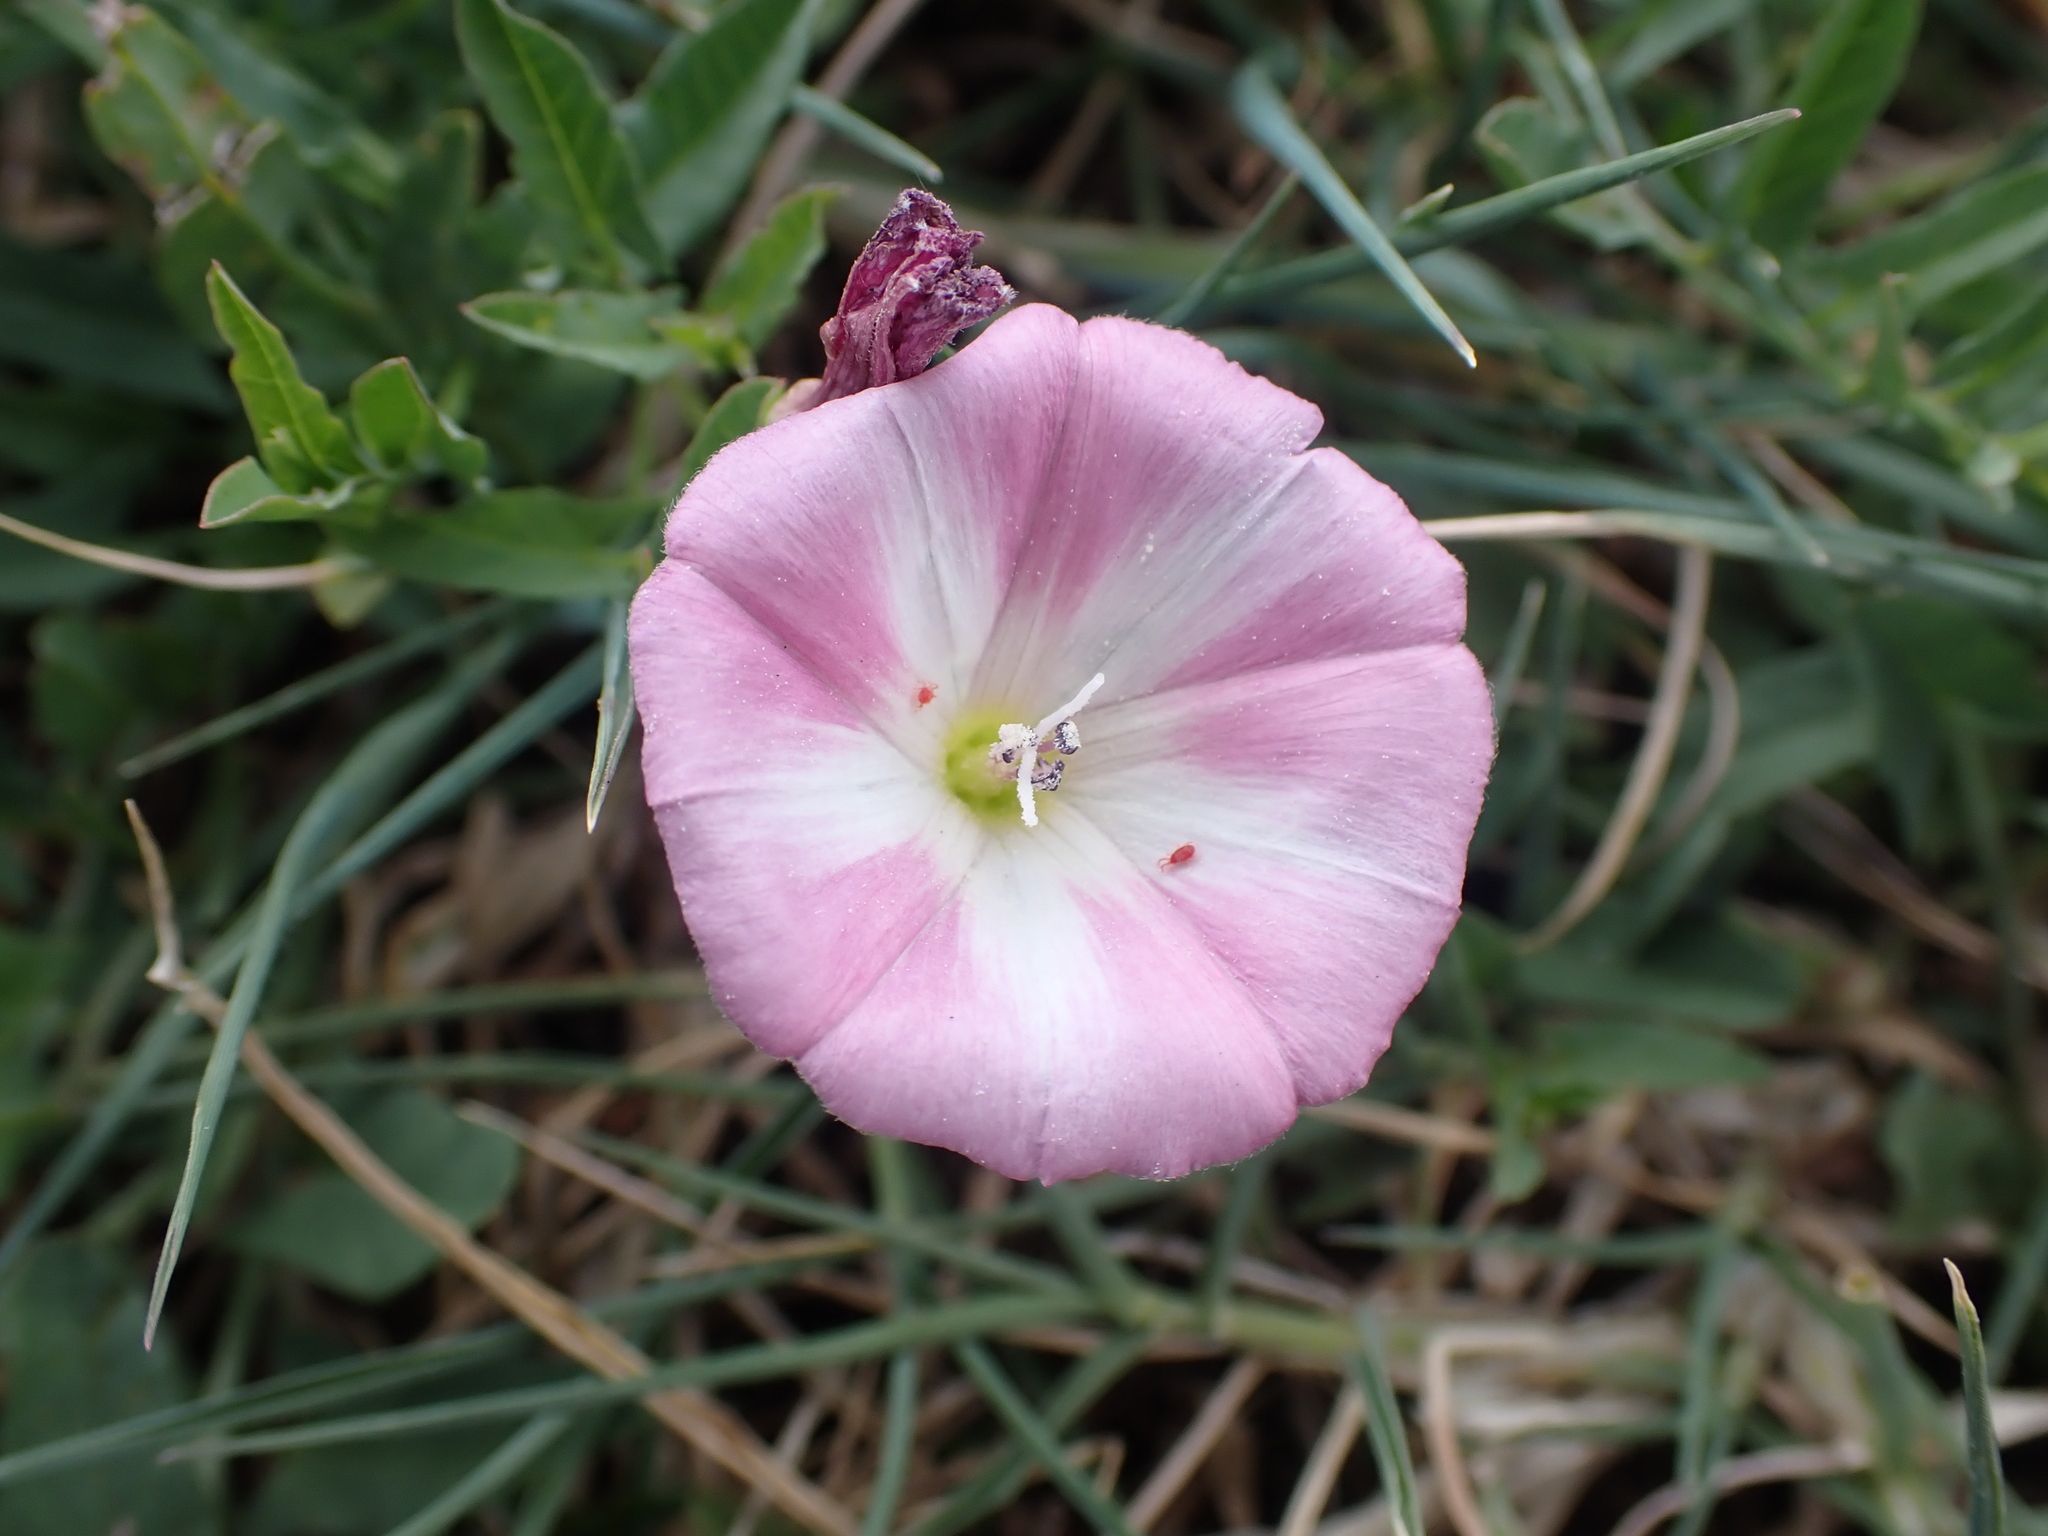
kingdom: Plantae
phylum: Tracheophyta
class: Magnoliopsida
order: Solanales
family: Convolvulaceae
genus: Convolvulus
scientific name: Convolvulus arvensis
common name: Field bindweed
